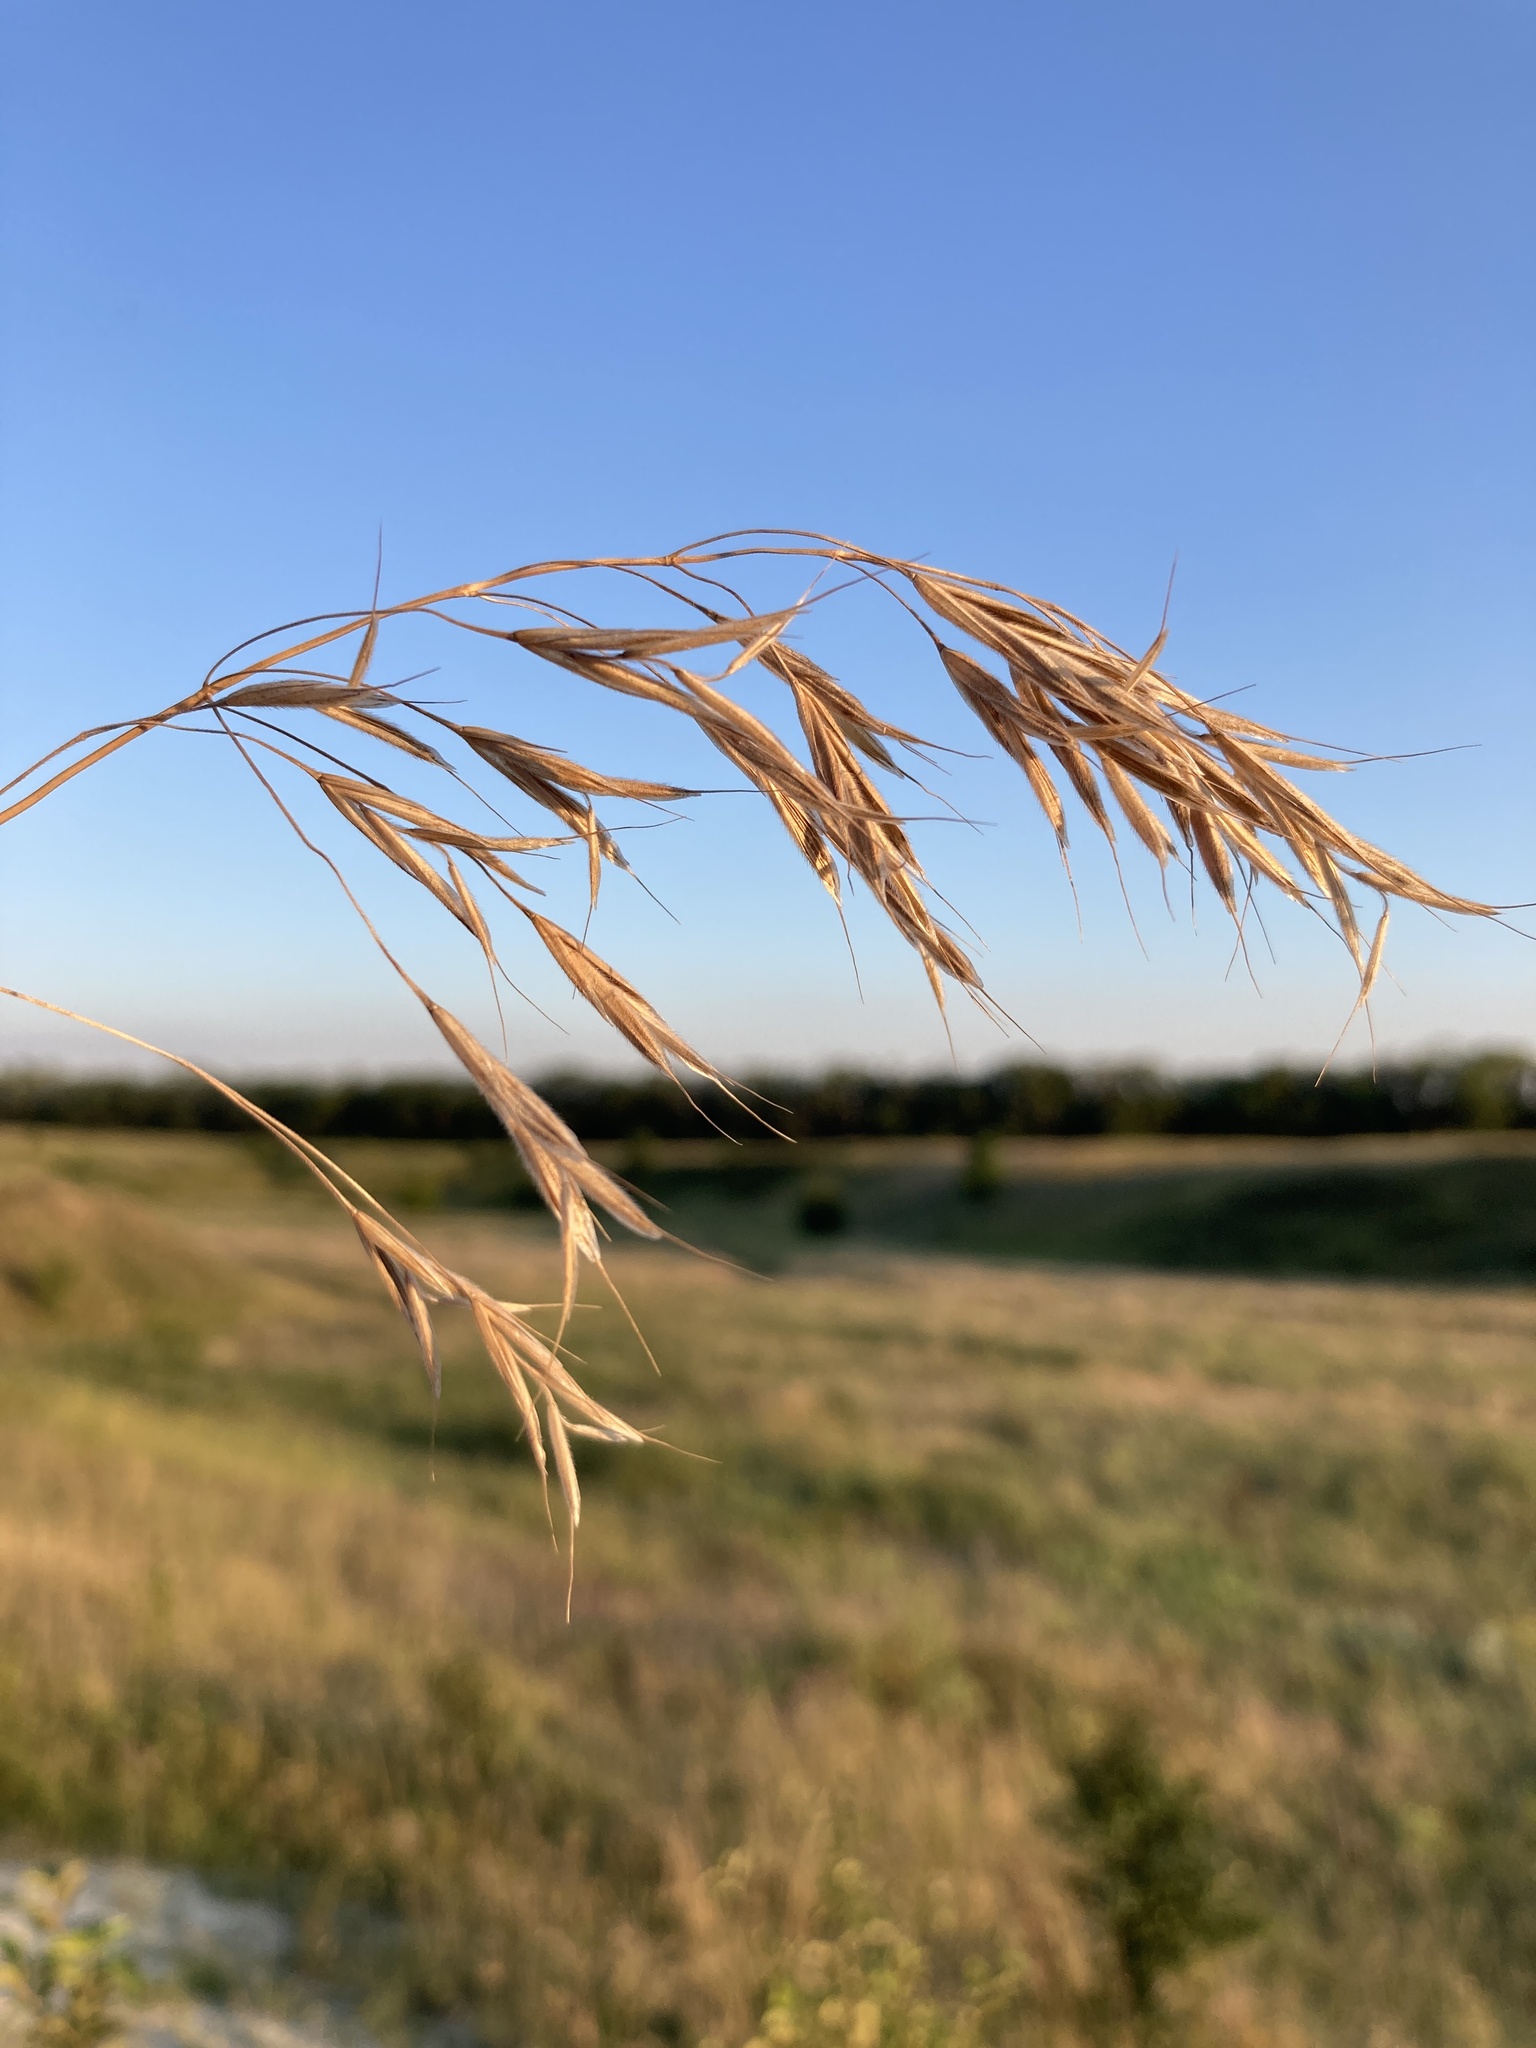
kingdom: Plantae
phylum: Tracheophyta
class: Liliopsida
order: Poales
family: Poaceae
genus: Bromus
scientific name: Bromus riparius
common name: Meadow brome
